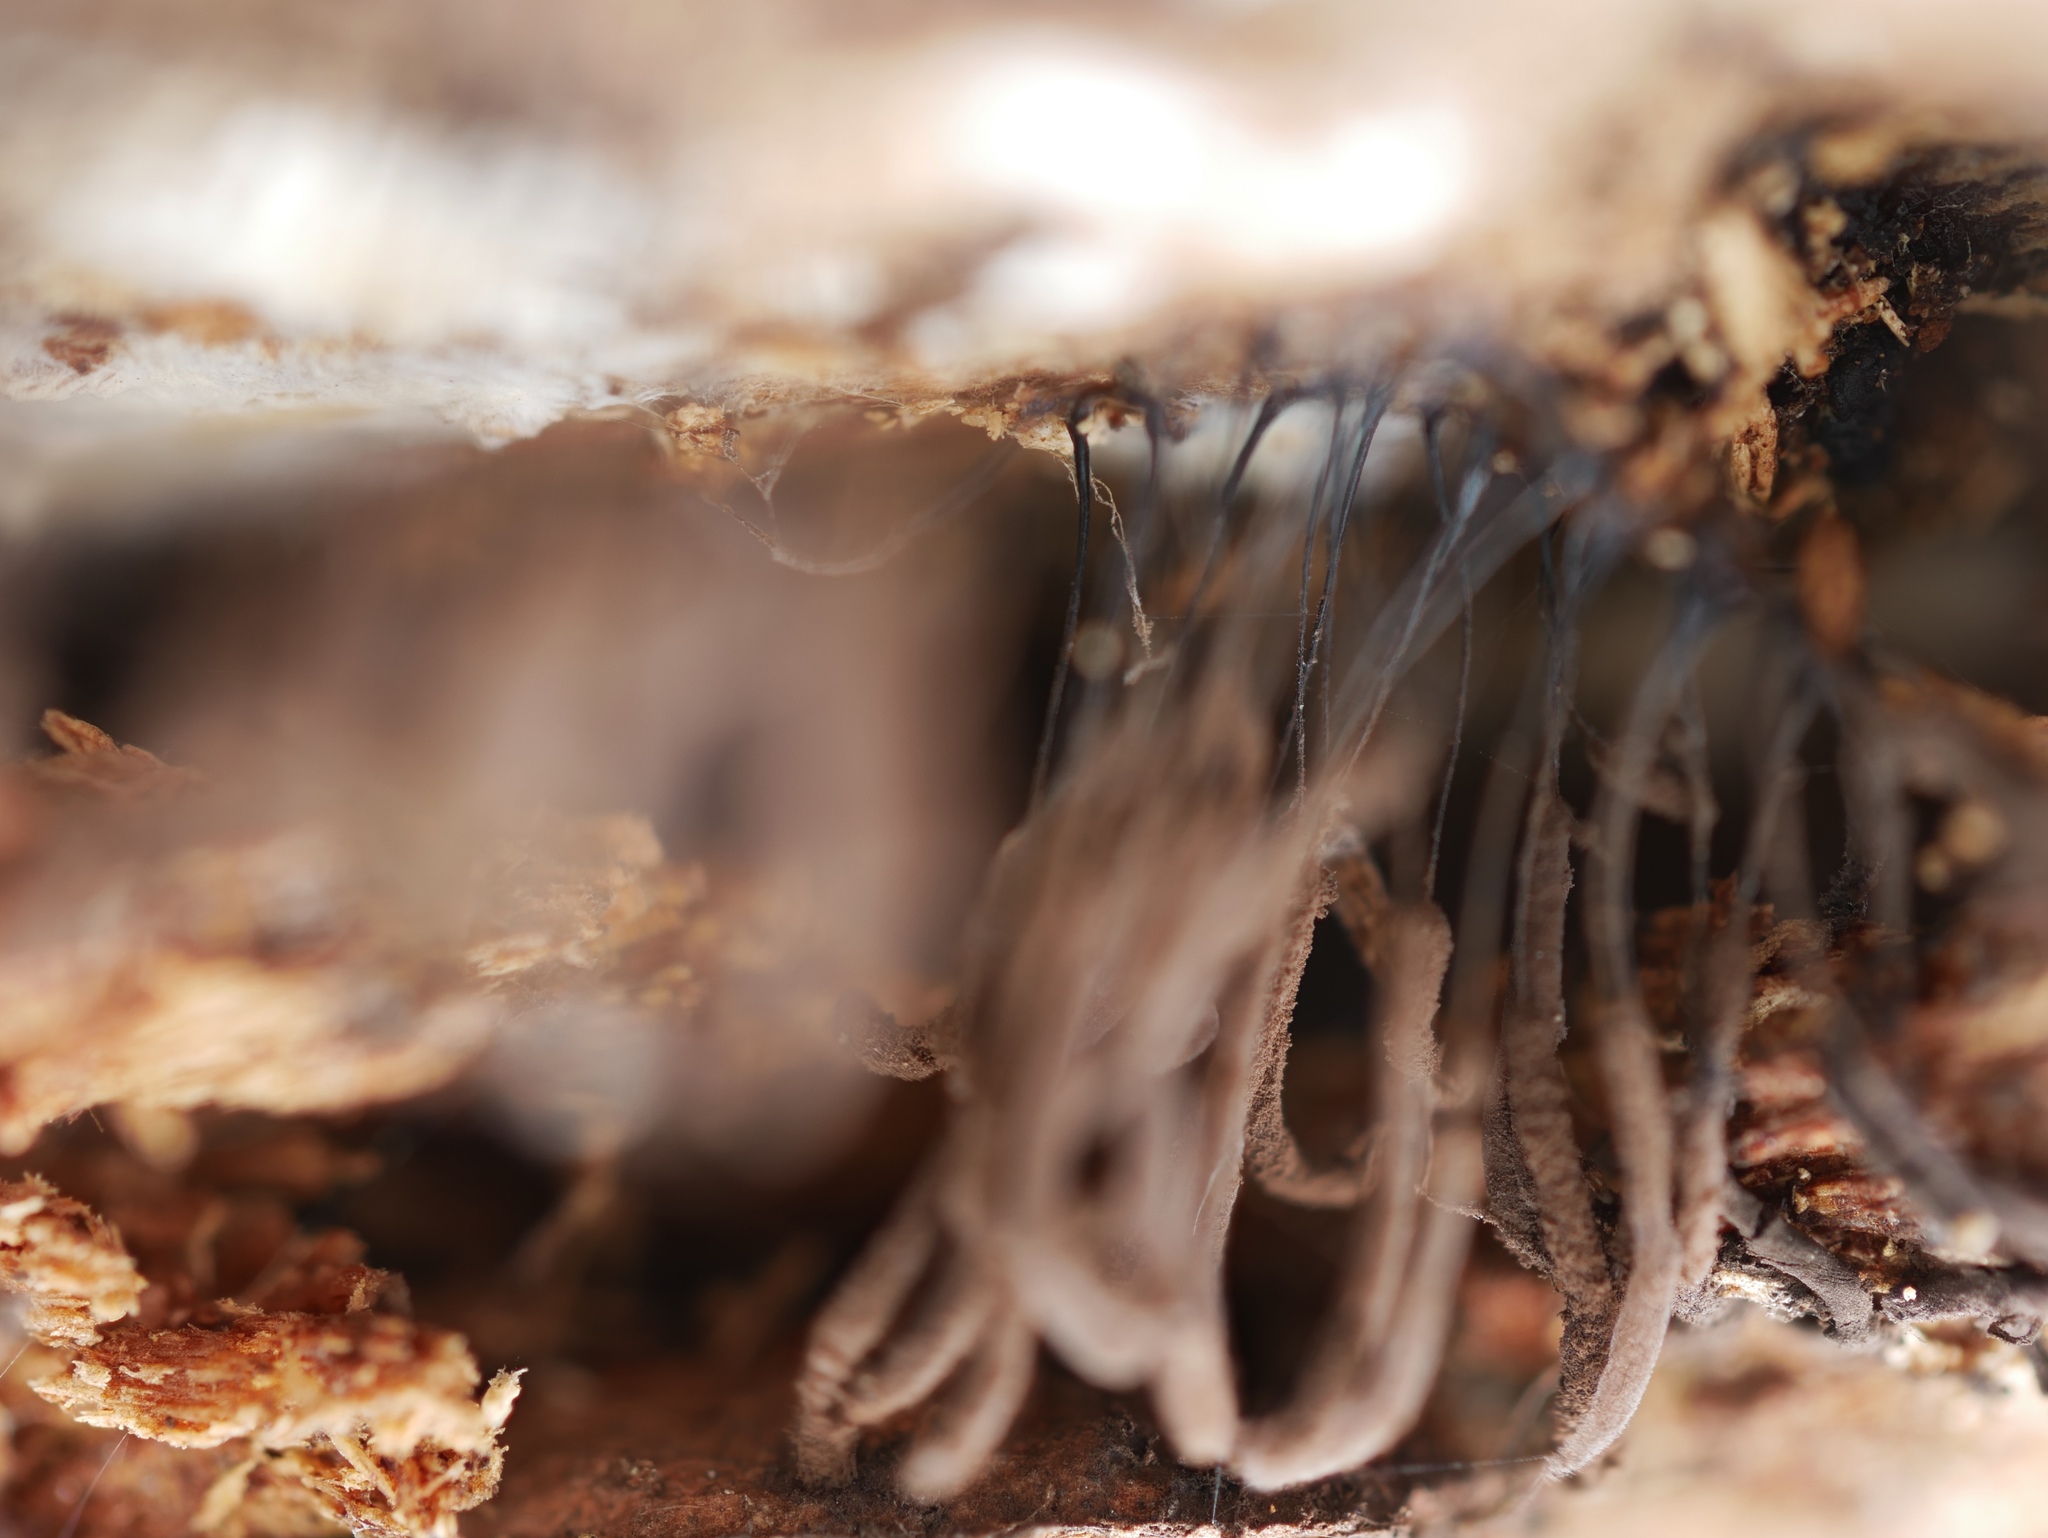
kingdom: Protozoa
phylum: Mycetozoa
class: Myxomycetes
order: Stemonitidales
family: Stemonitidaceae
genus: Stemonitis
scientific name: Stemonitis splendens
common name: Chocolate tube slime
